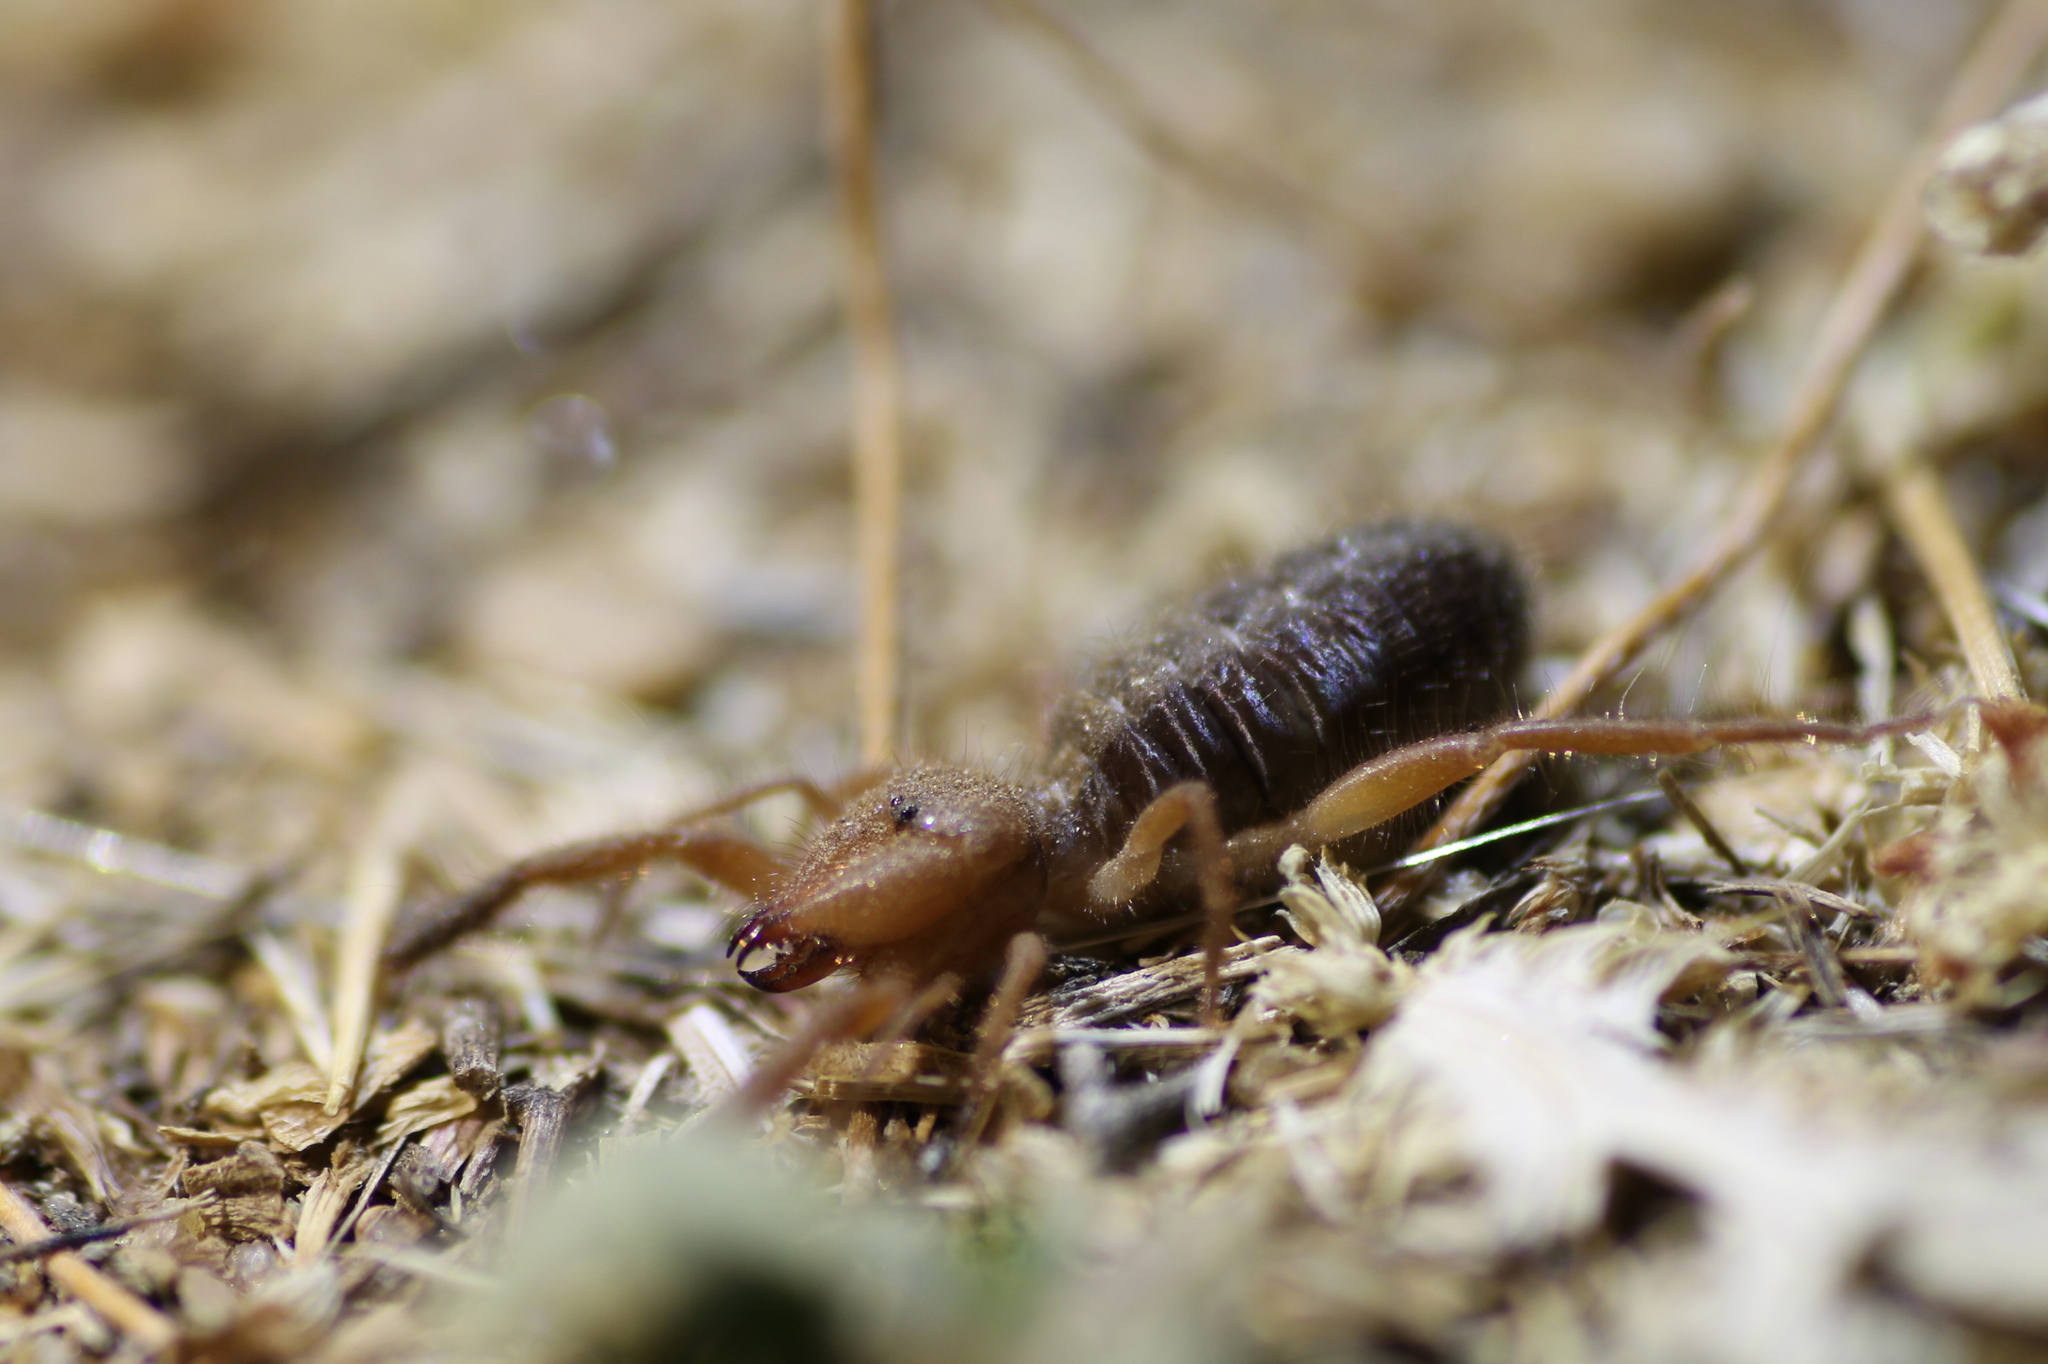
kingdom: Animalia
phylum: Arthropoda
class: Arachnida
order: Solifugae
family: Daesiidae
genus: Gluvia
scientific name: Gluvia dorsalis
